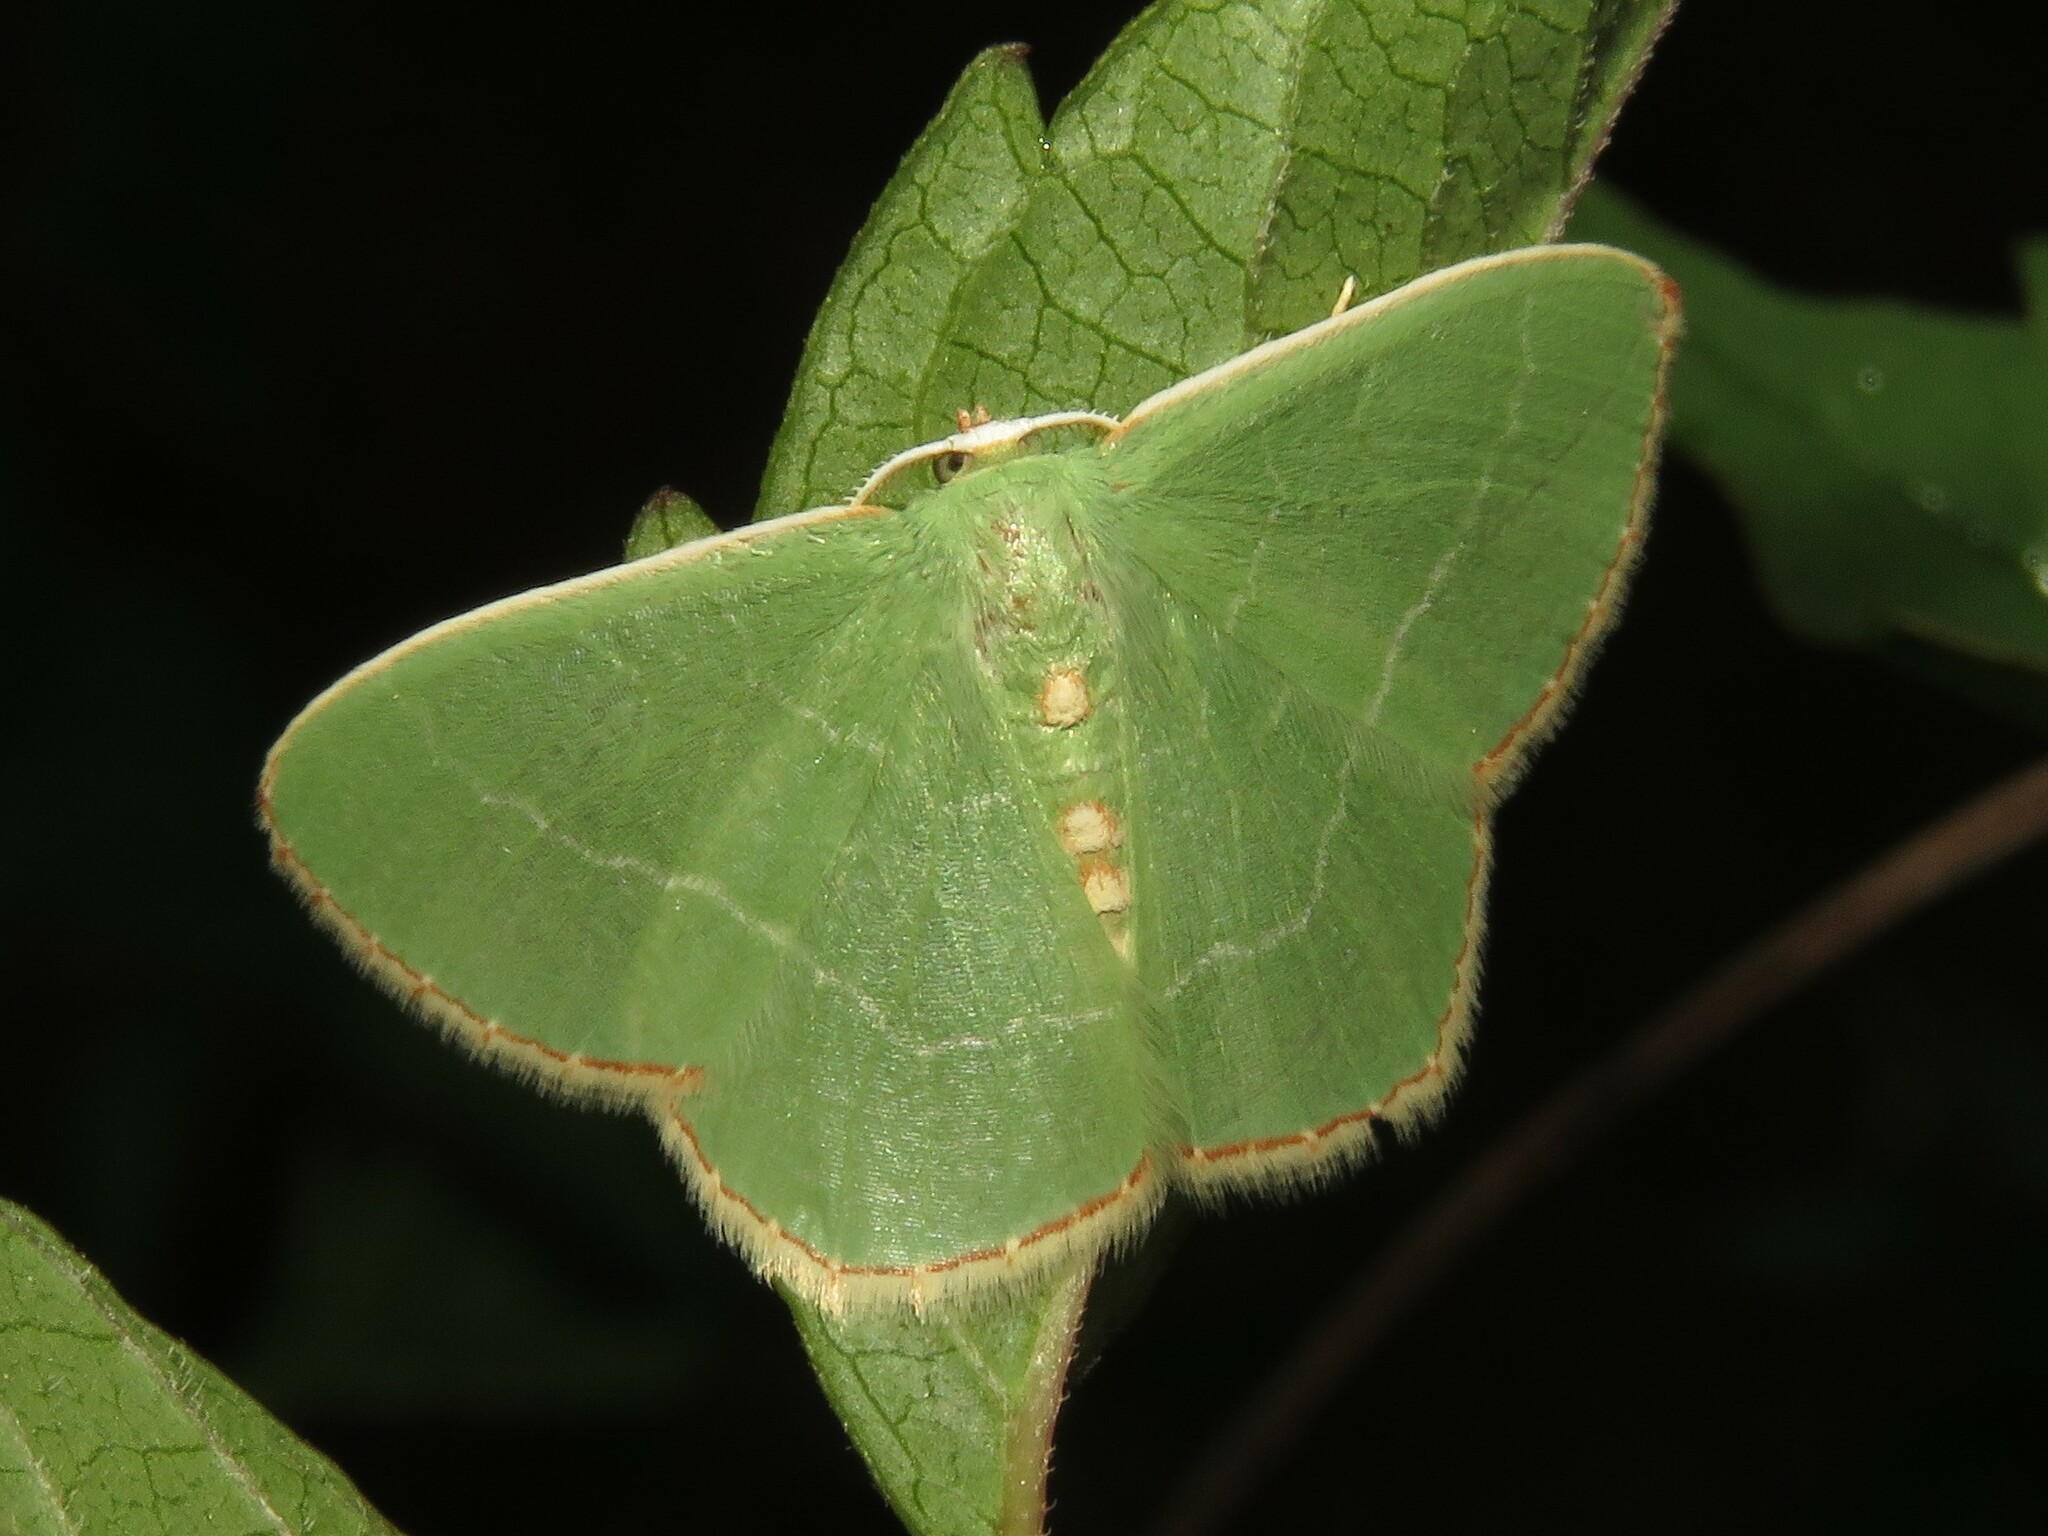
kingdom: Animalia
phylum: Arthropoda
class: Insecta
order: Lepidoptera
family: Geometridae
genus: Nemoria
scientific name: Nemoria bistriaria
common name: Red-fringed emerald
